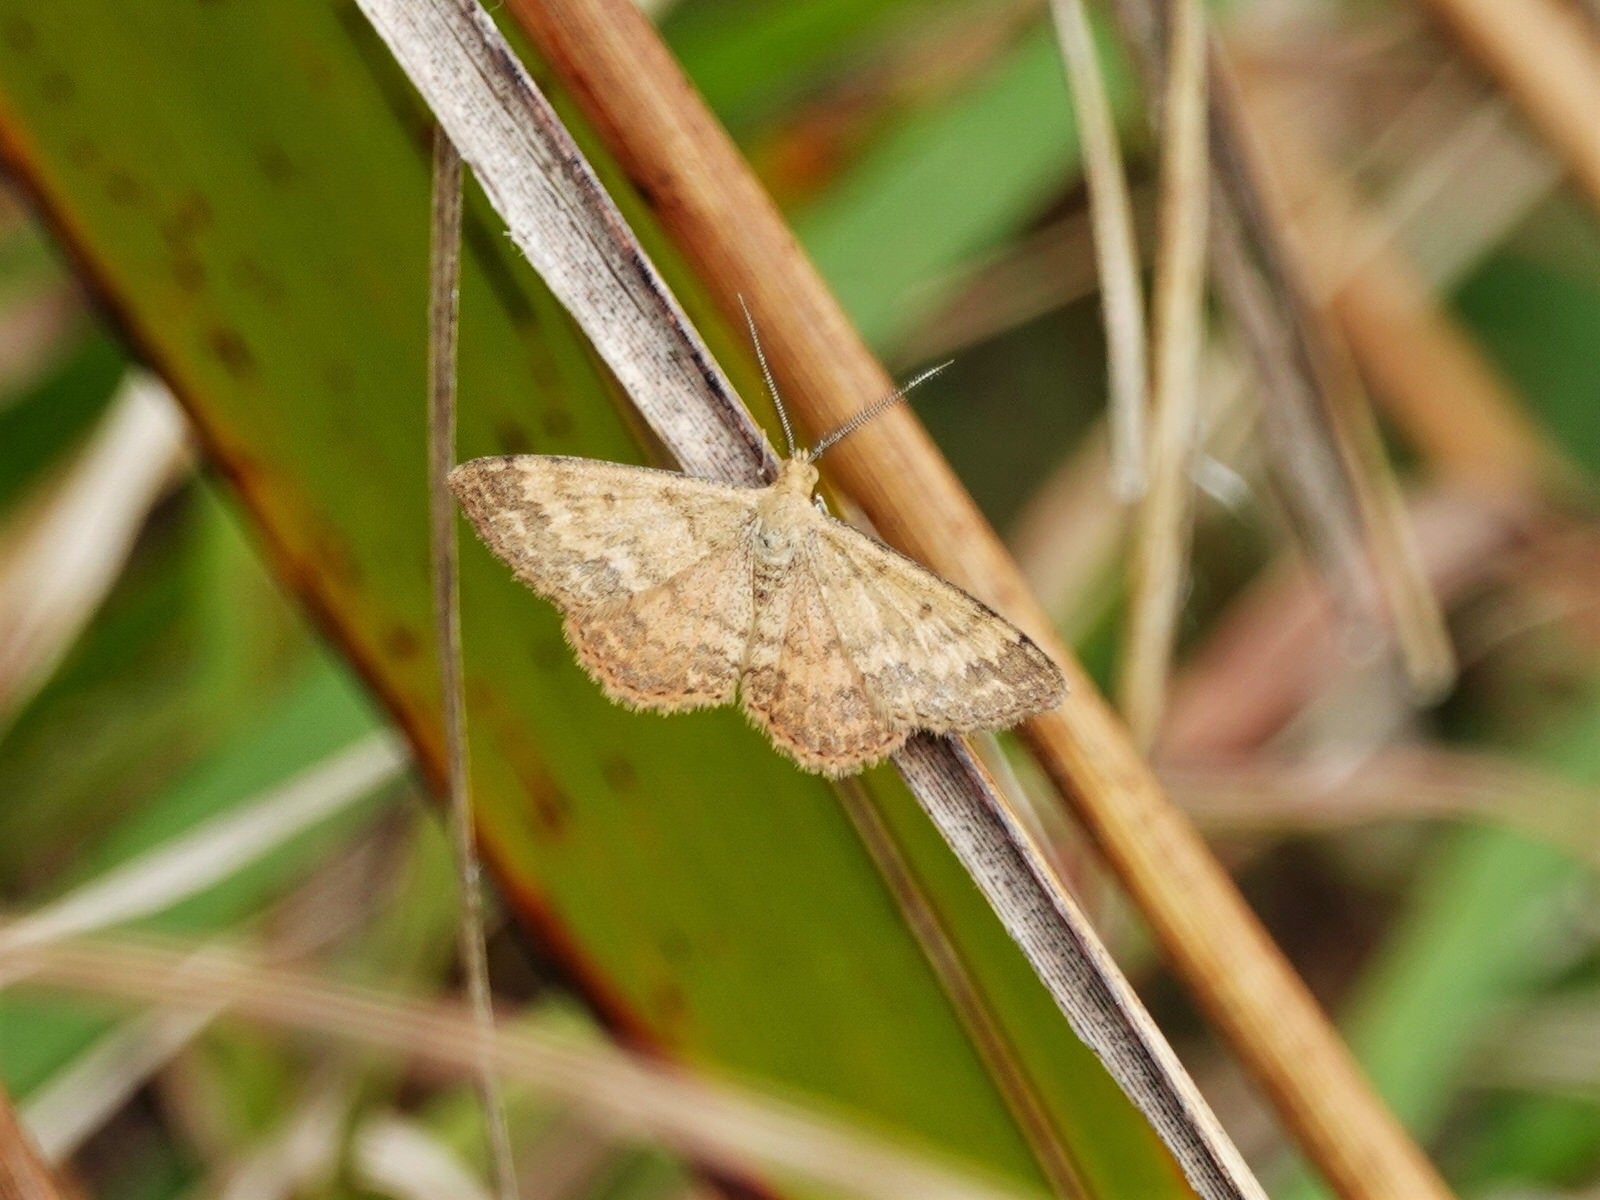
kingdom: Animalia
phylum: Arthropoda
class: Insecta
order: Lepidoptera
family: Geometridae
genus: Scopula
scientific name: Scopula rubraria
